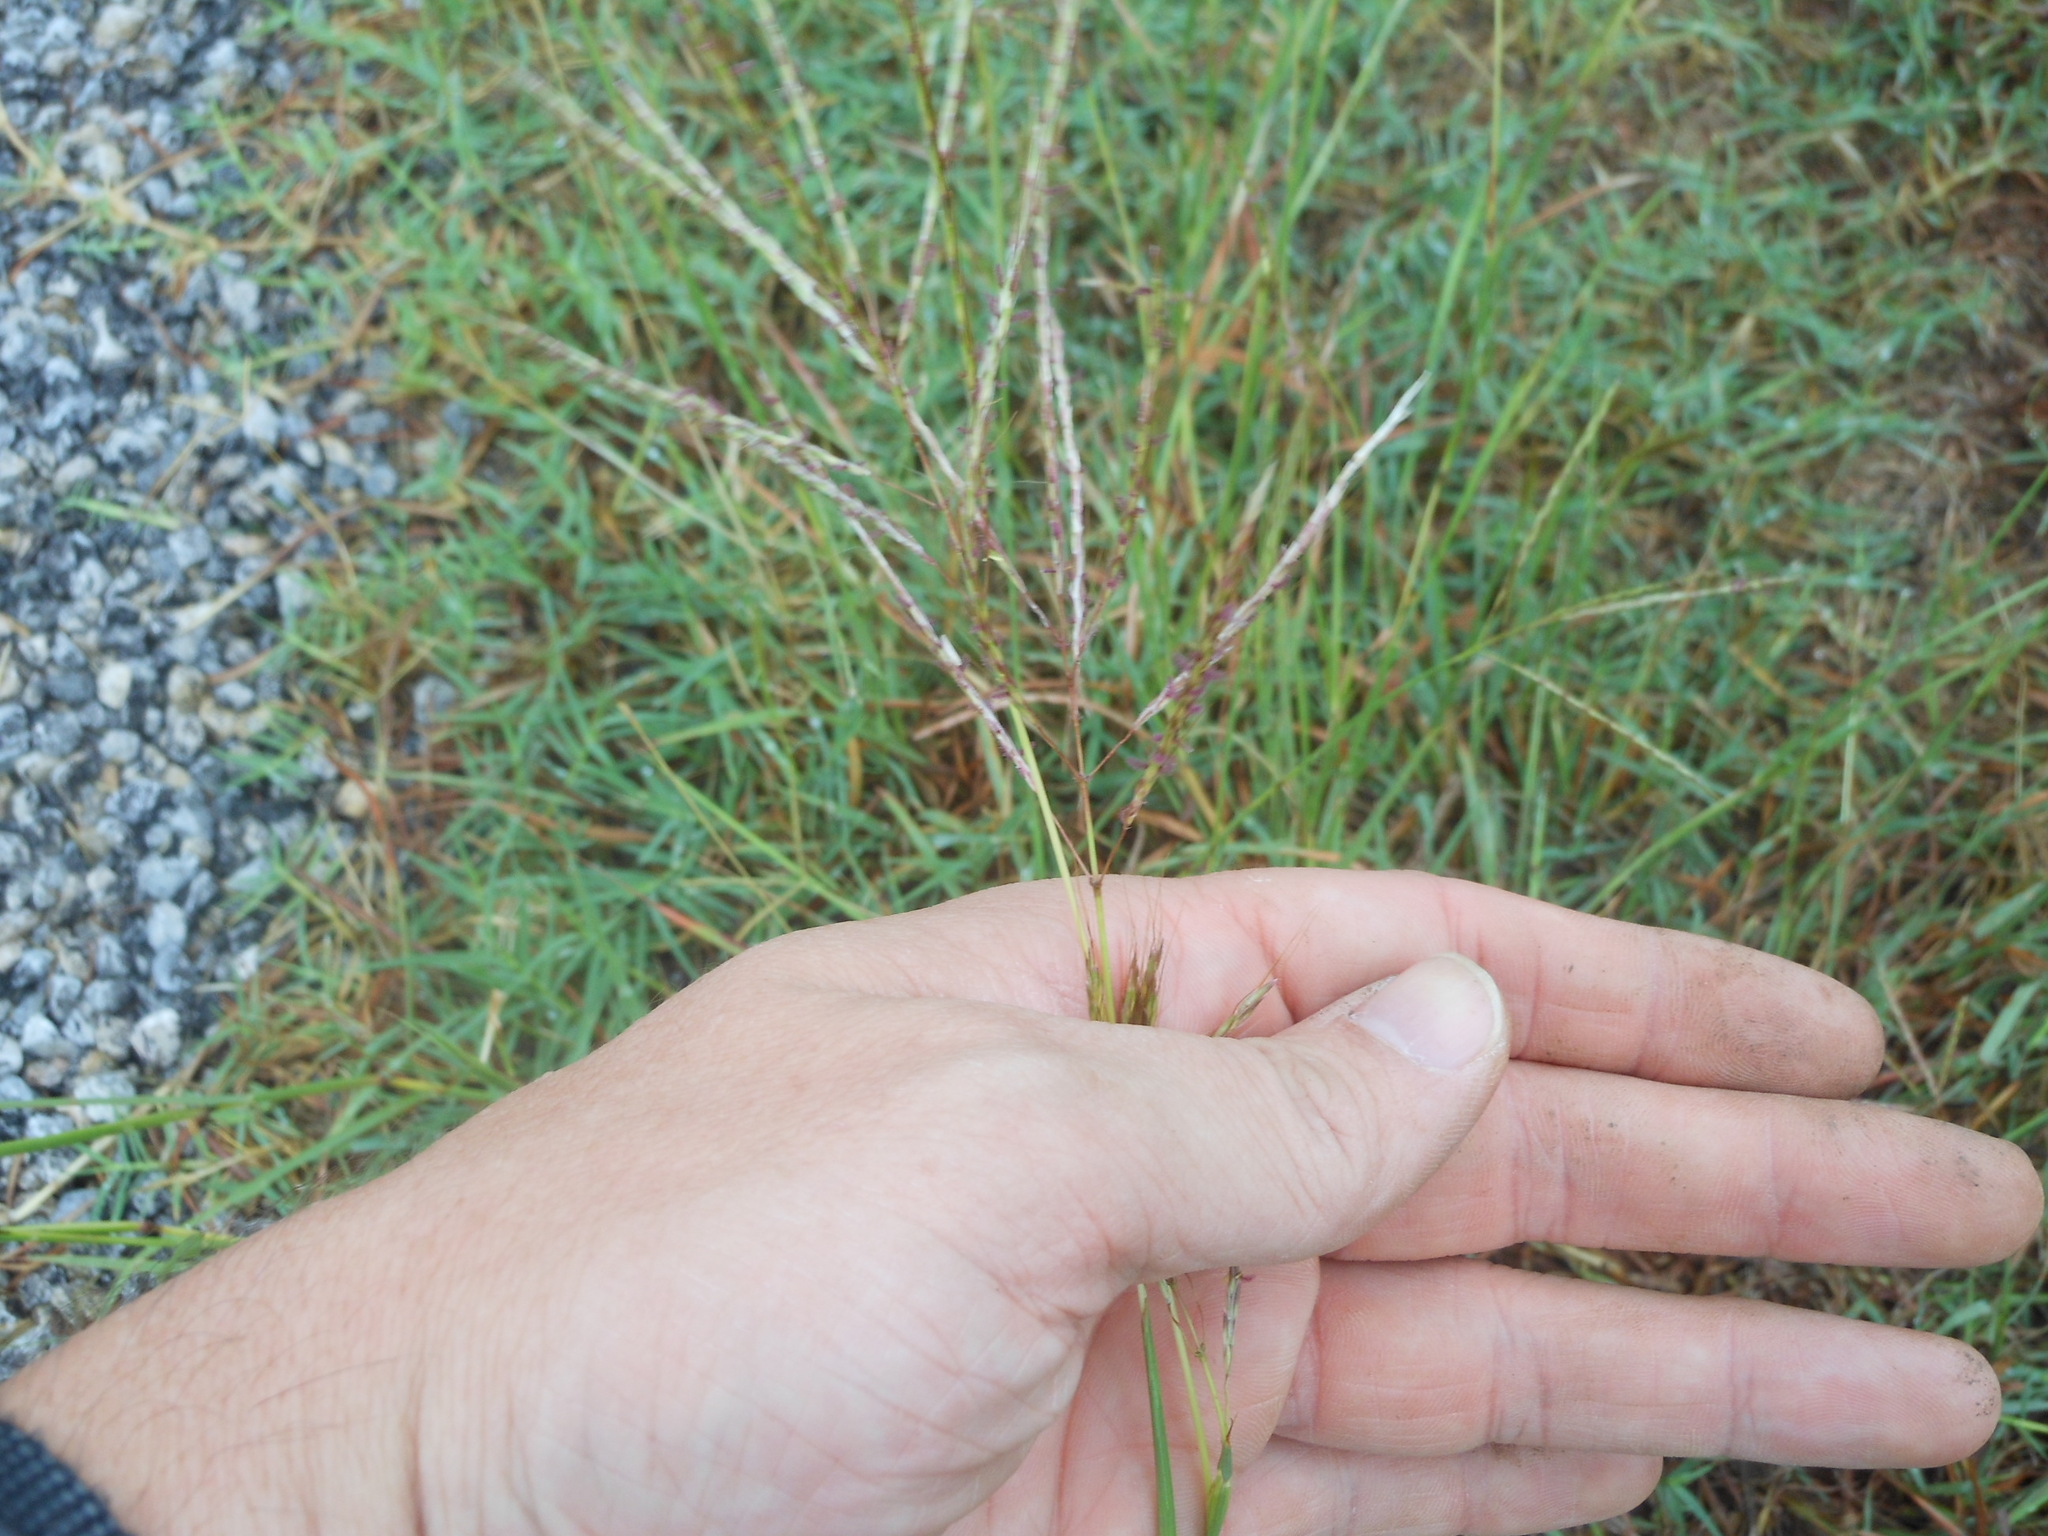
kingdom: Plantae
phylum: Tracheophyta
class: Liliopsida
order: Poales
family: Poaceae
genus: Bothriochloa
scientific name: Bothriochloa ischaemum
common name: Yellow bluestem
